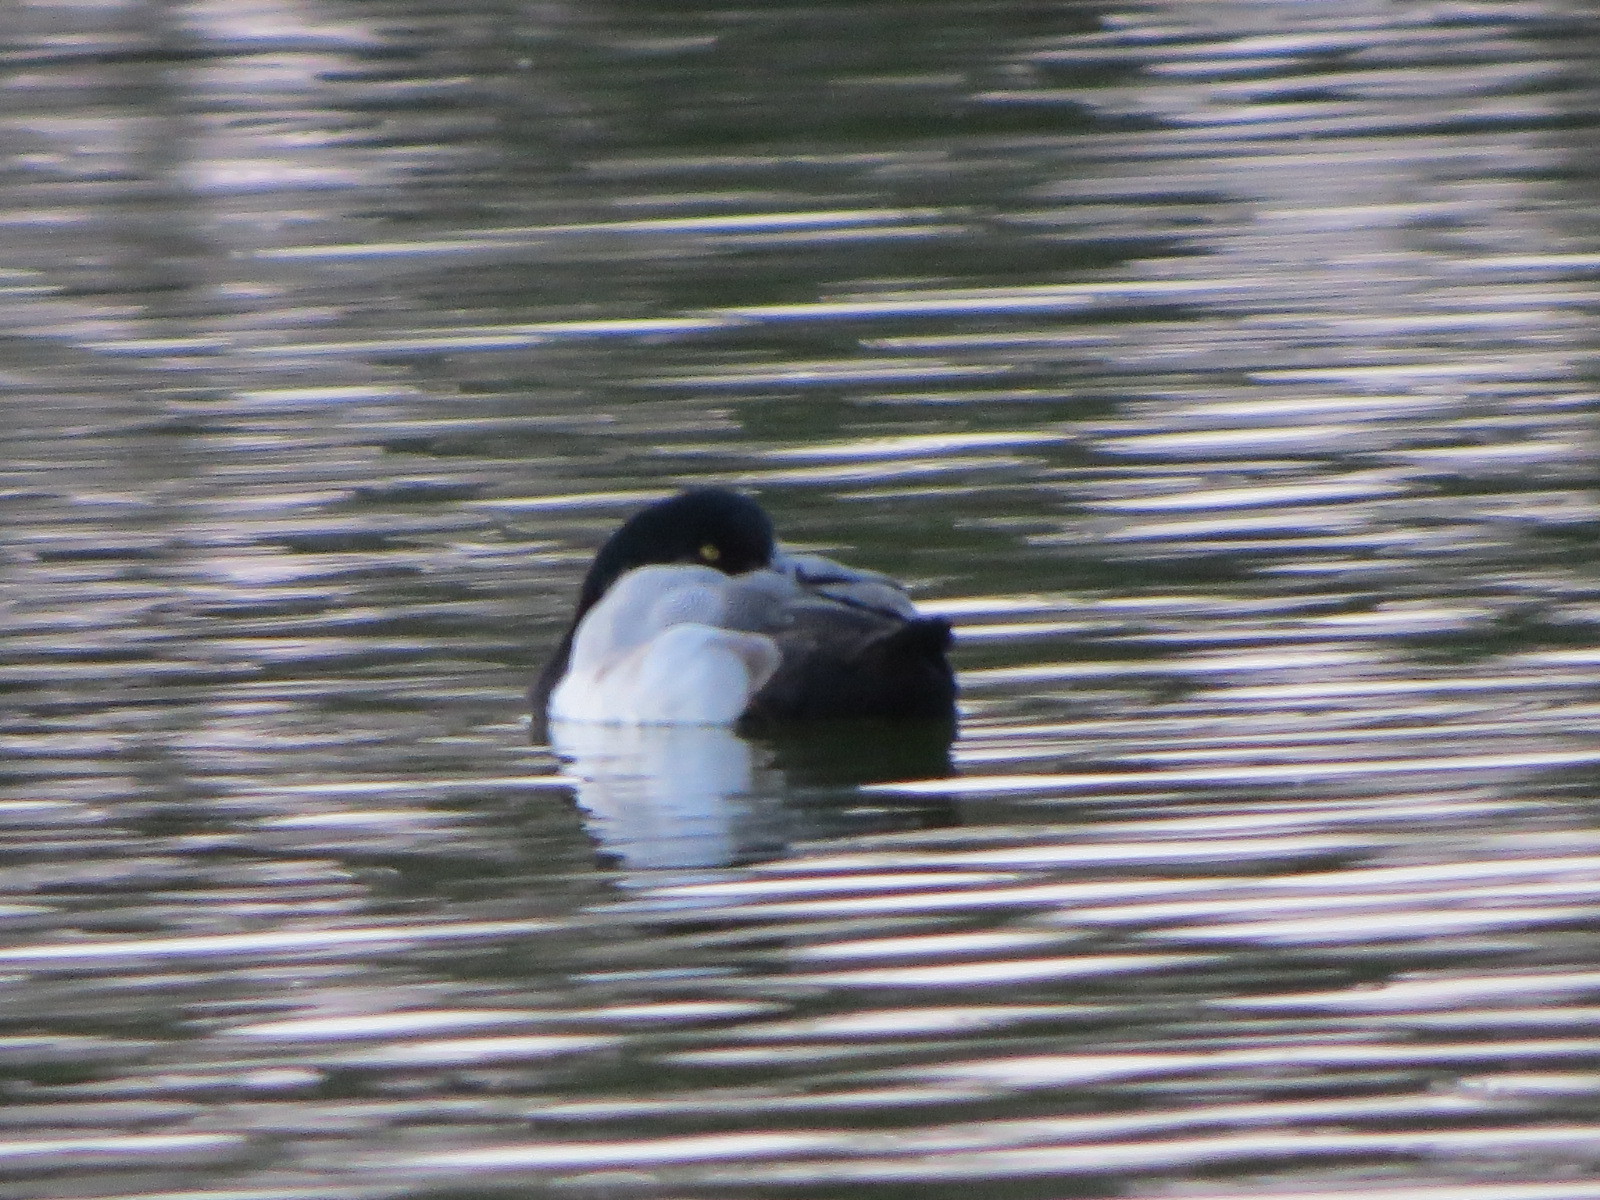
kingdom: Animalia
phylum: Chordata
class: Aves
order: Anseriformes
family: Anatidae
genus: Aythya
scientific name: Aythya marila
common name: Greater scaup
